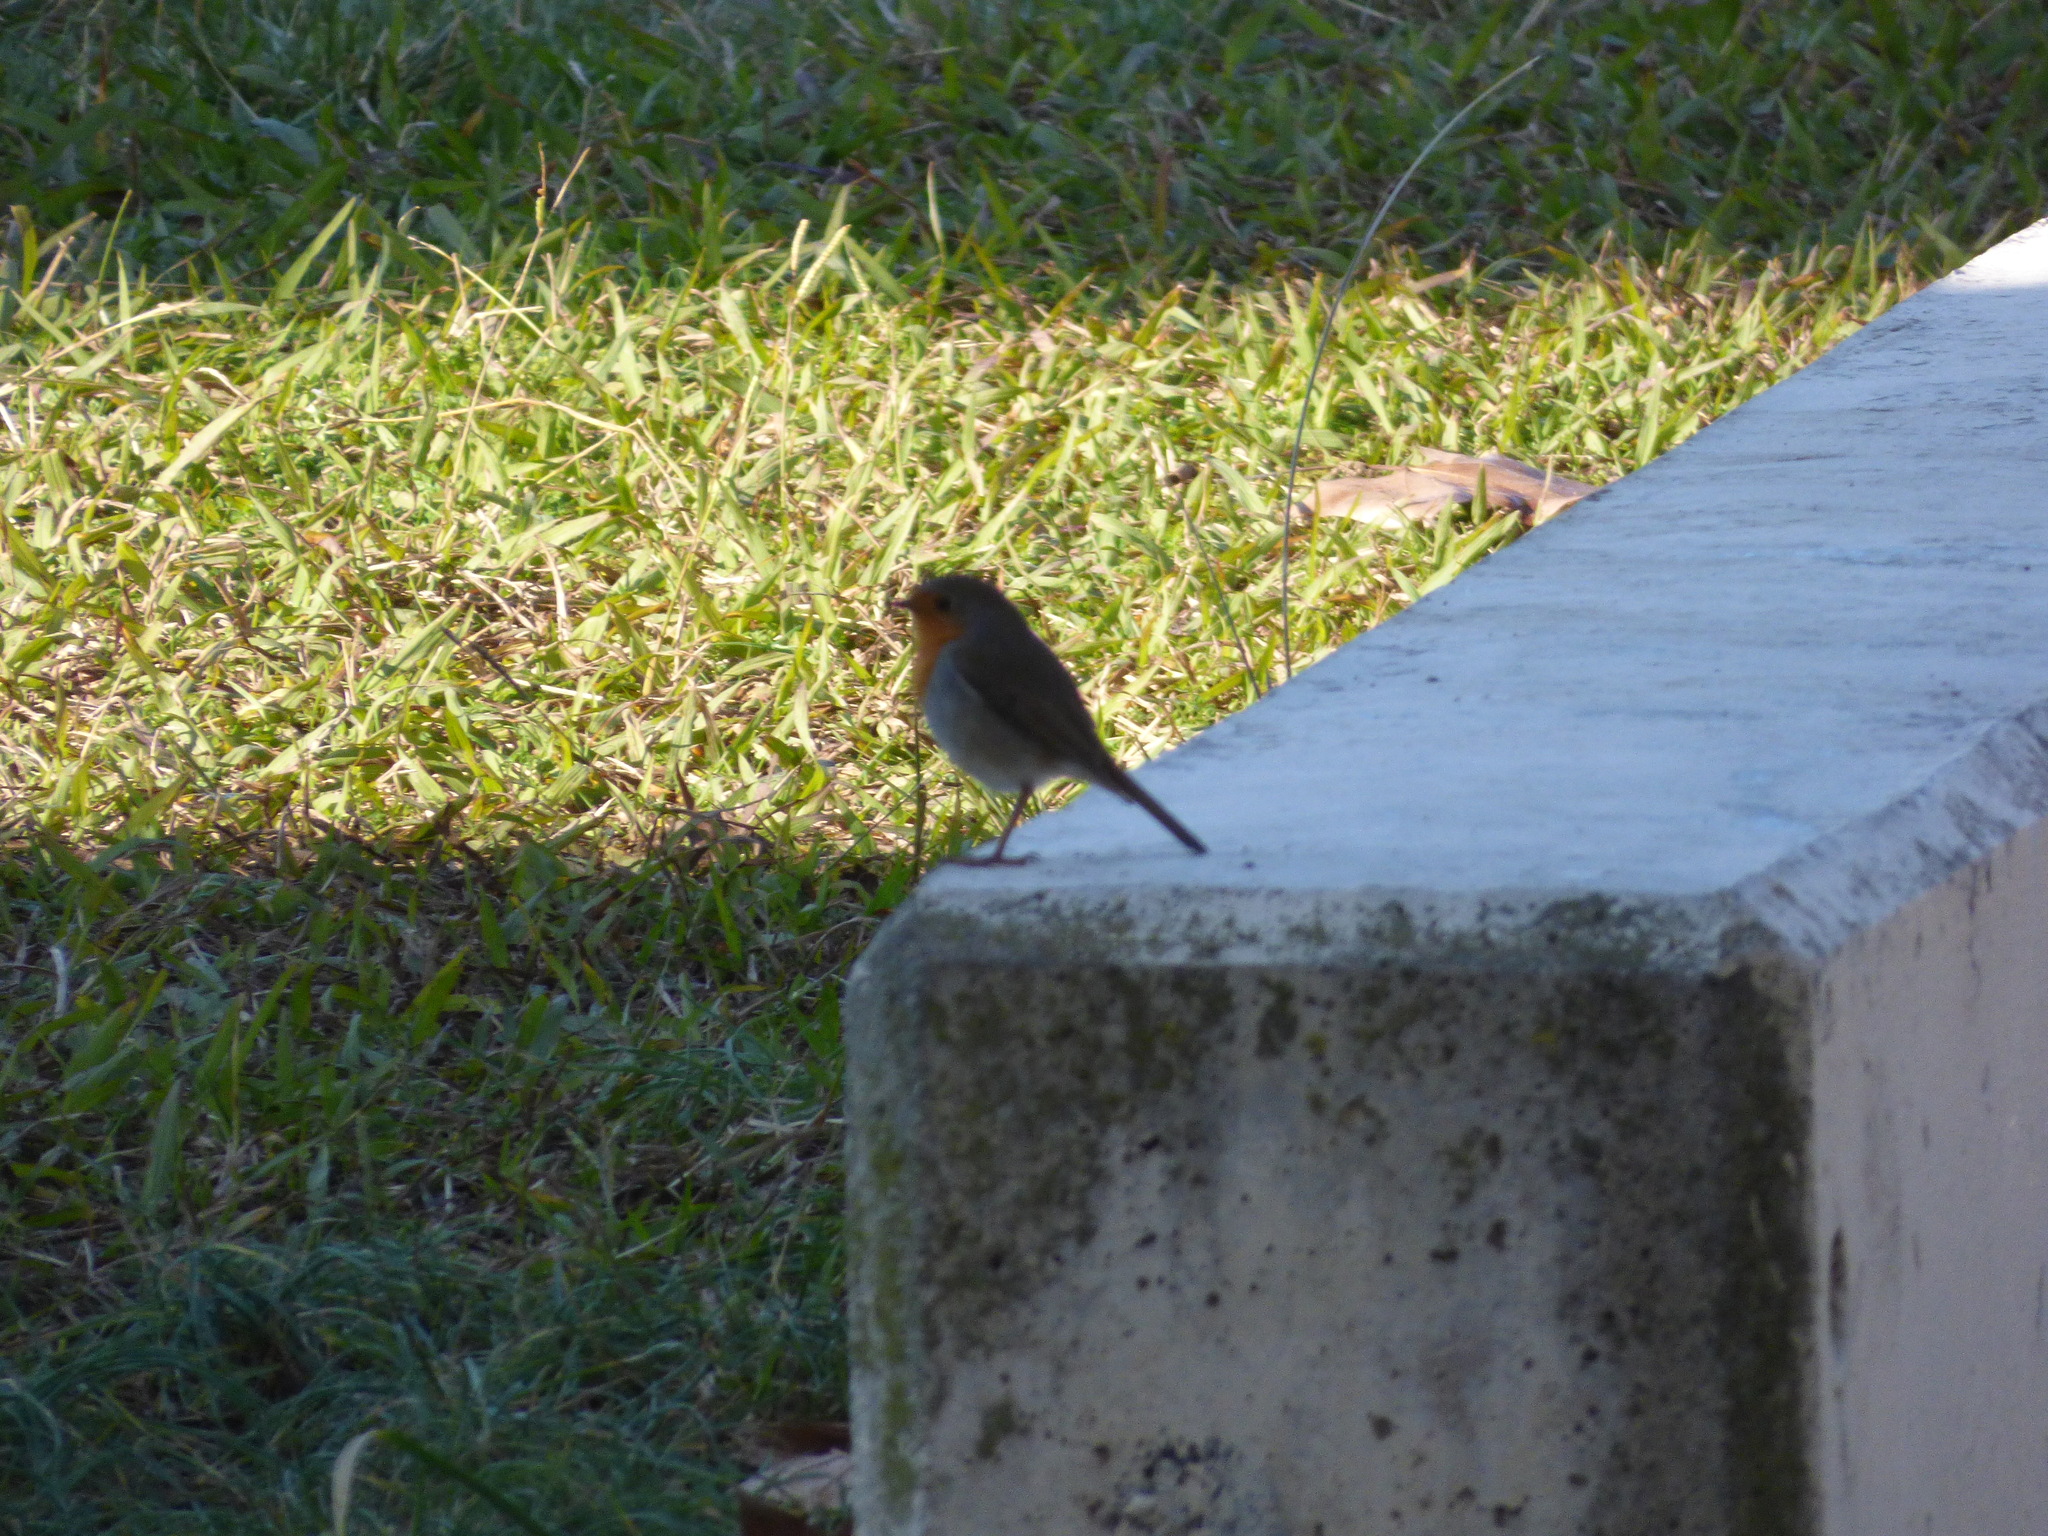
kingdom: Animalia
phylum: Chordata
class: Aves
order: Passeriformes
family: Muscicapidae
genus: Erithacus
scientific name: Erithacus rubecula
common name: European robin
